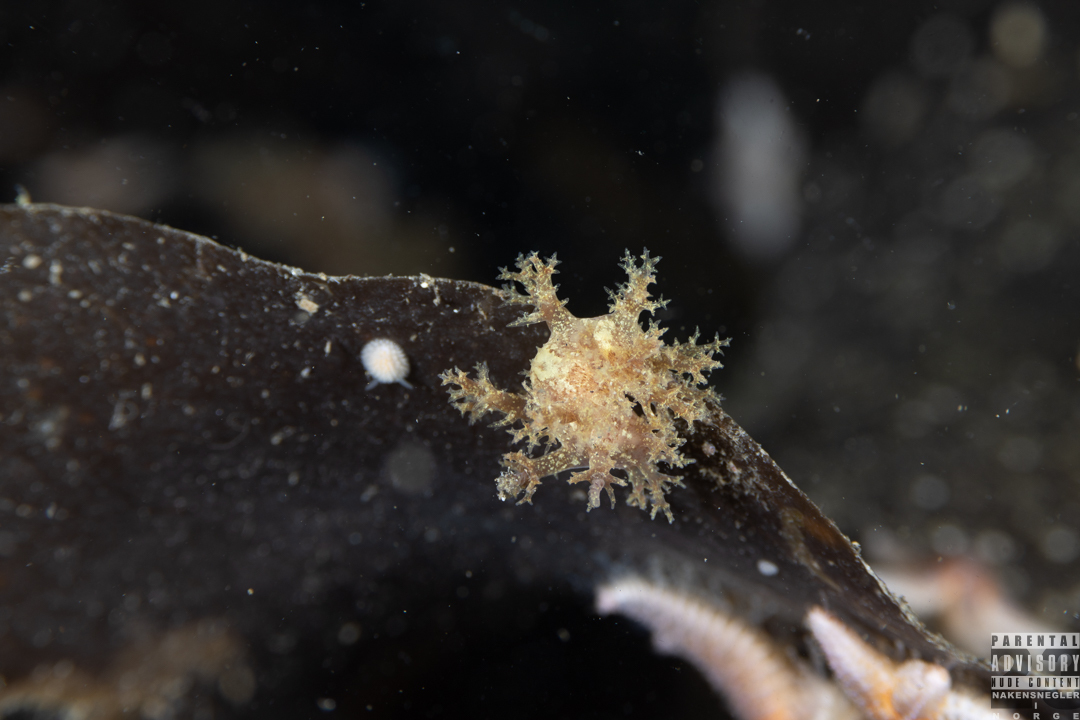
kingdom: Animalia
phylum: Mollusca
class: Gastropoda
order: Nudibranchia
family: Dendronotidae
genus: Dendronotus
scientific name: Dendronotus lacteus
